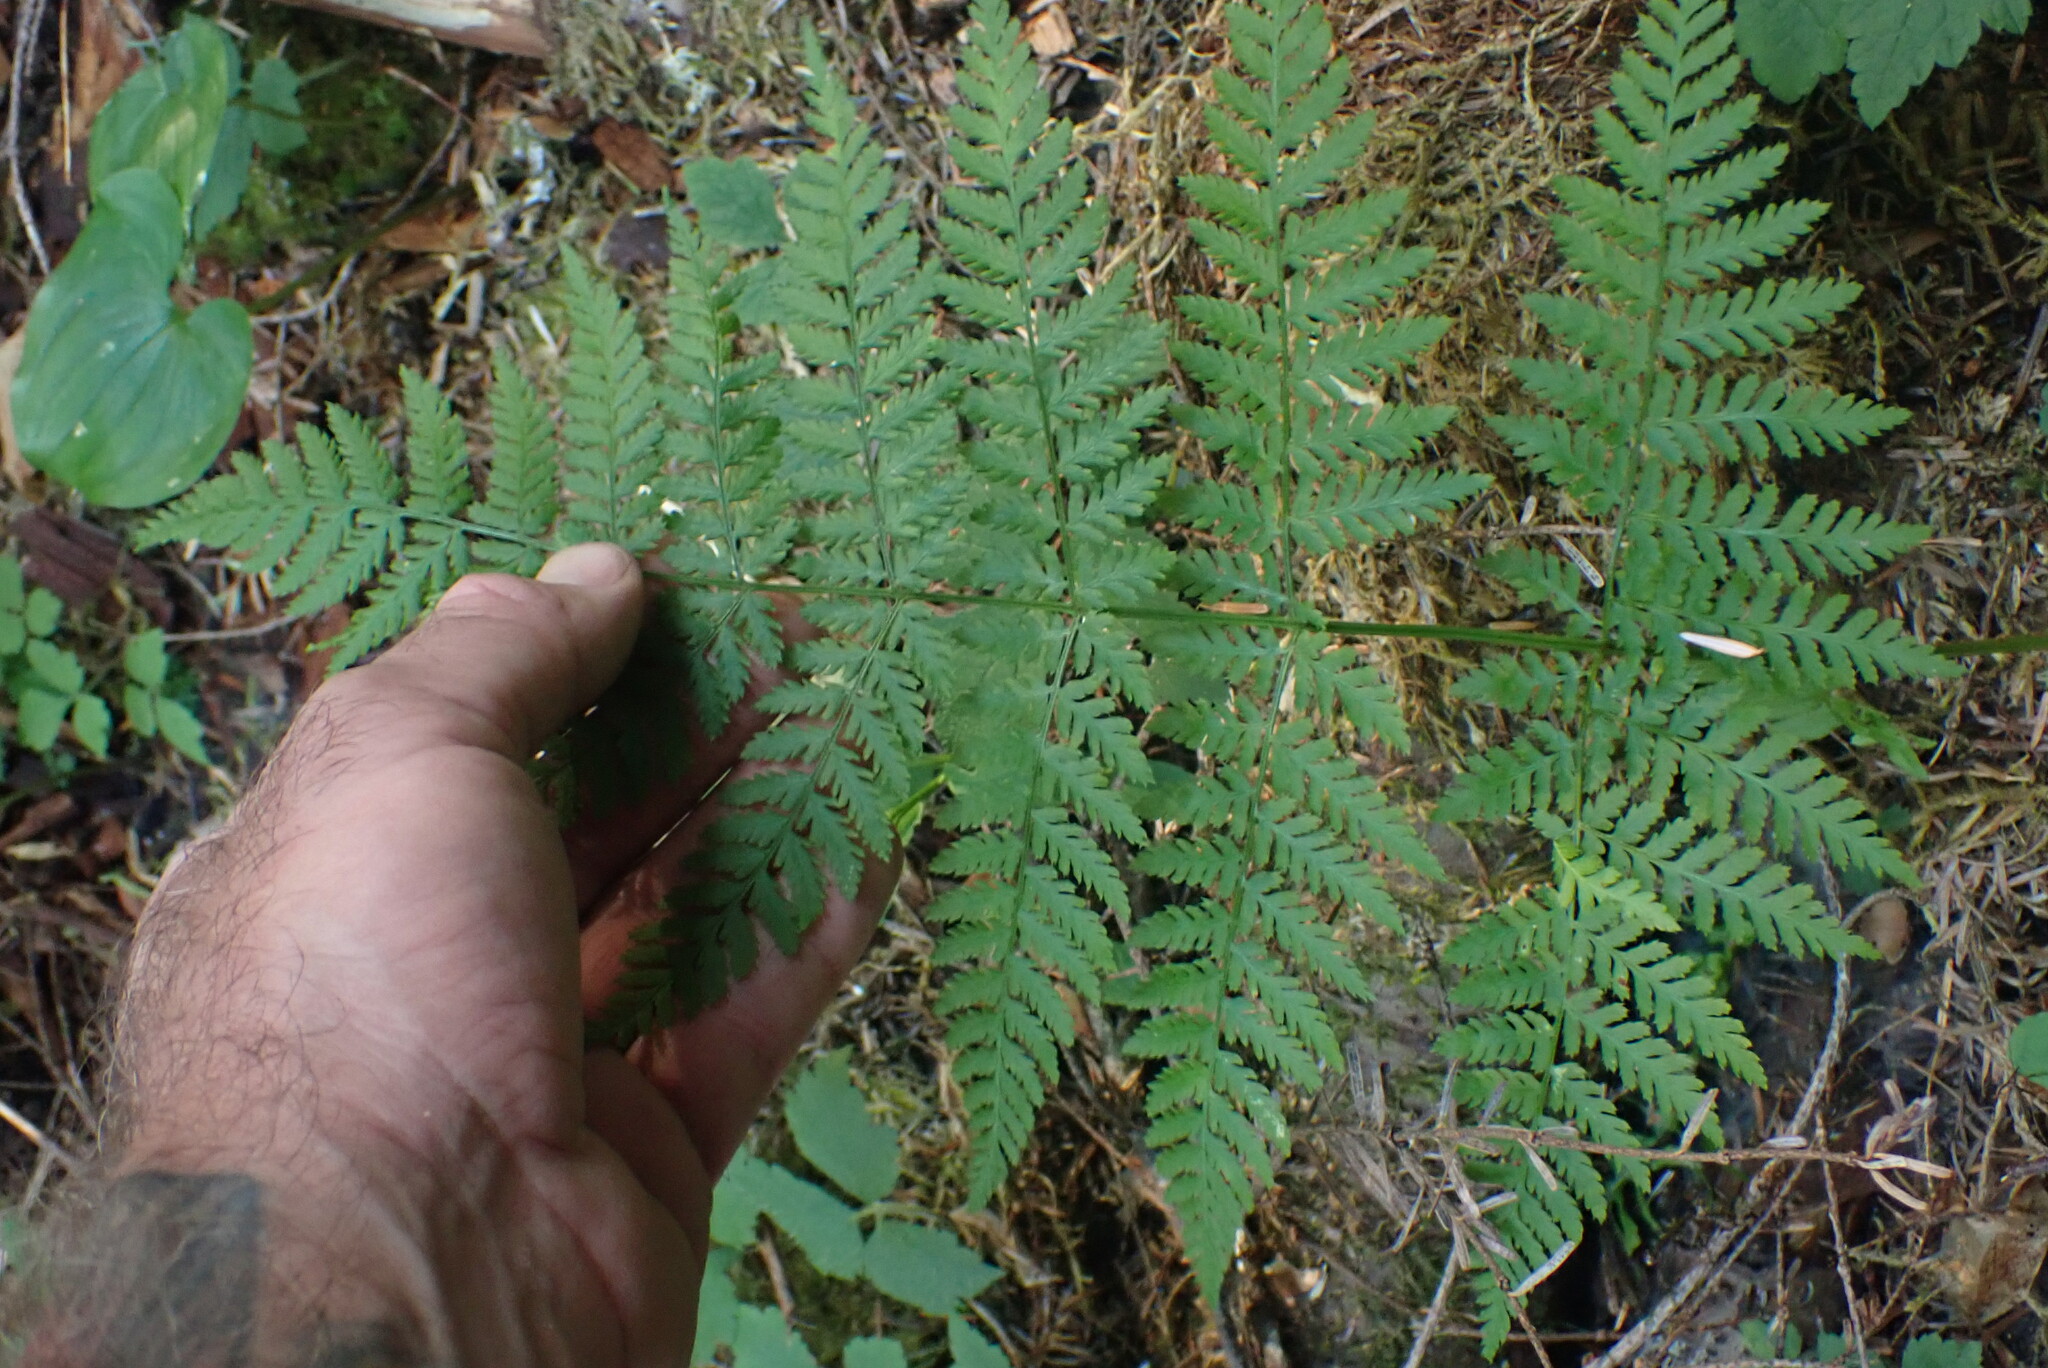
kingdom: Plantae
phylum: Tracheophyta
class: Polypodiopsida
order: Polypodiales
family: Dryopteridaceae
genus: Dryopteris
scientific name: Dryopteris expansa
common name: Northern buckler fern
